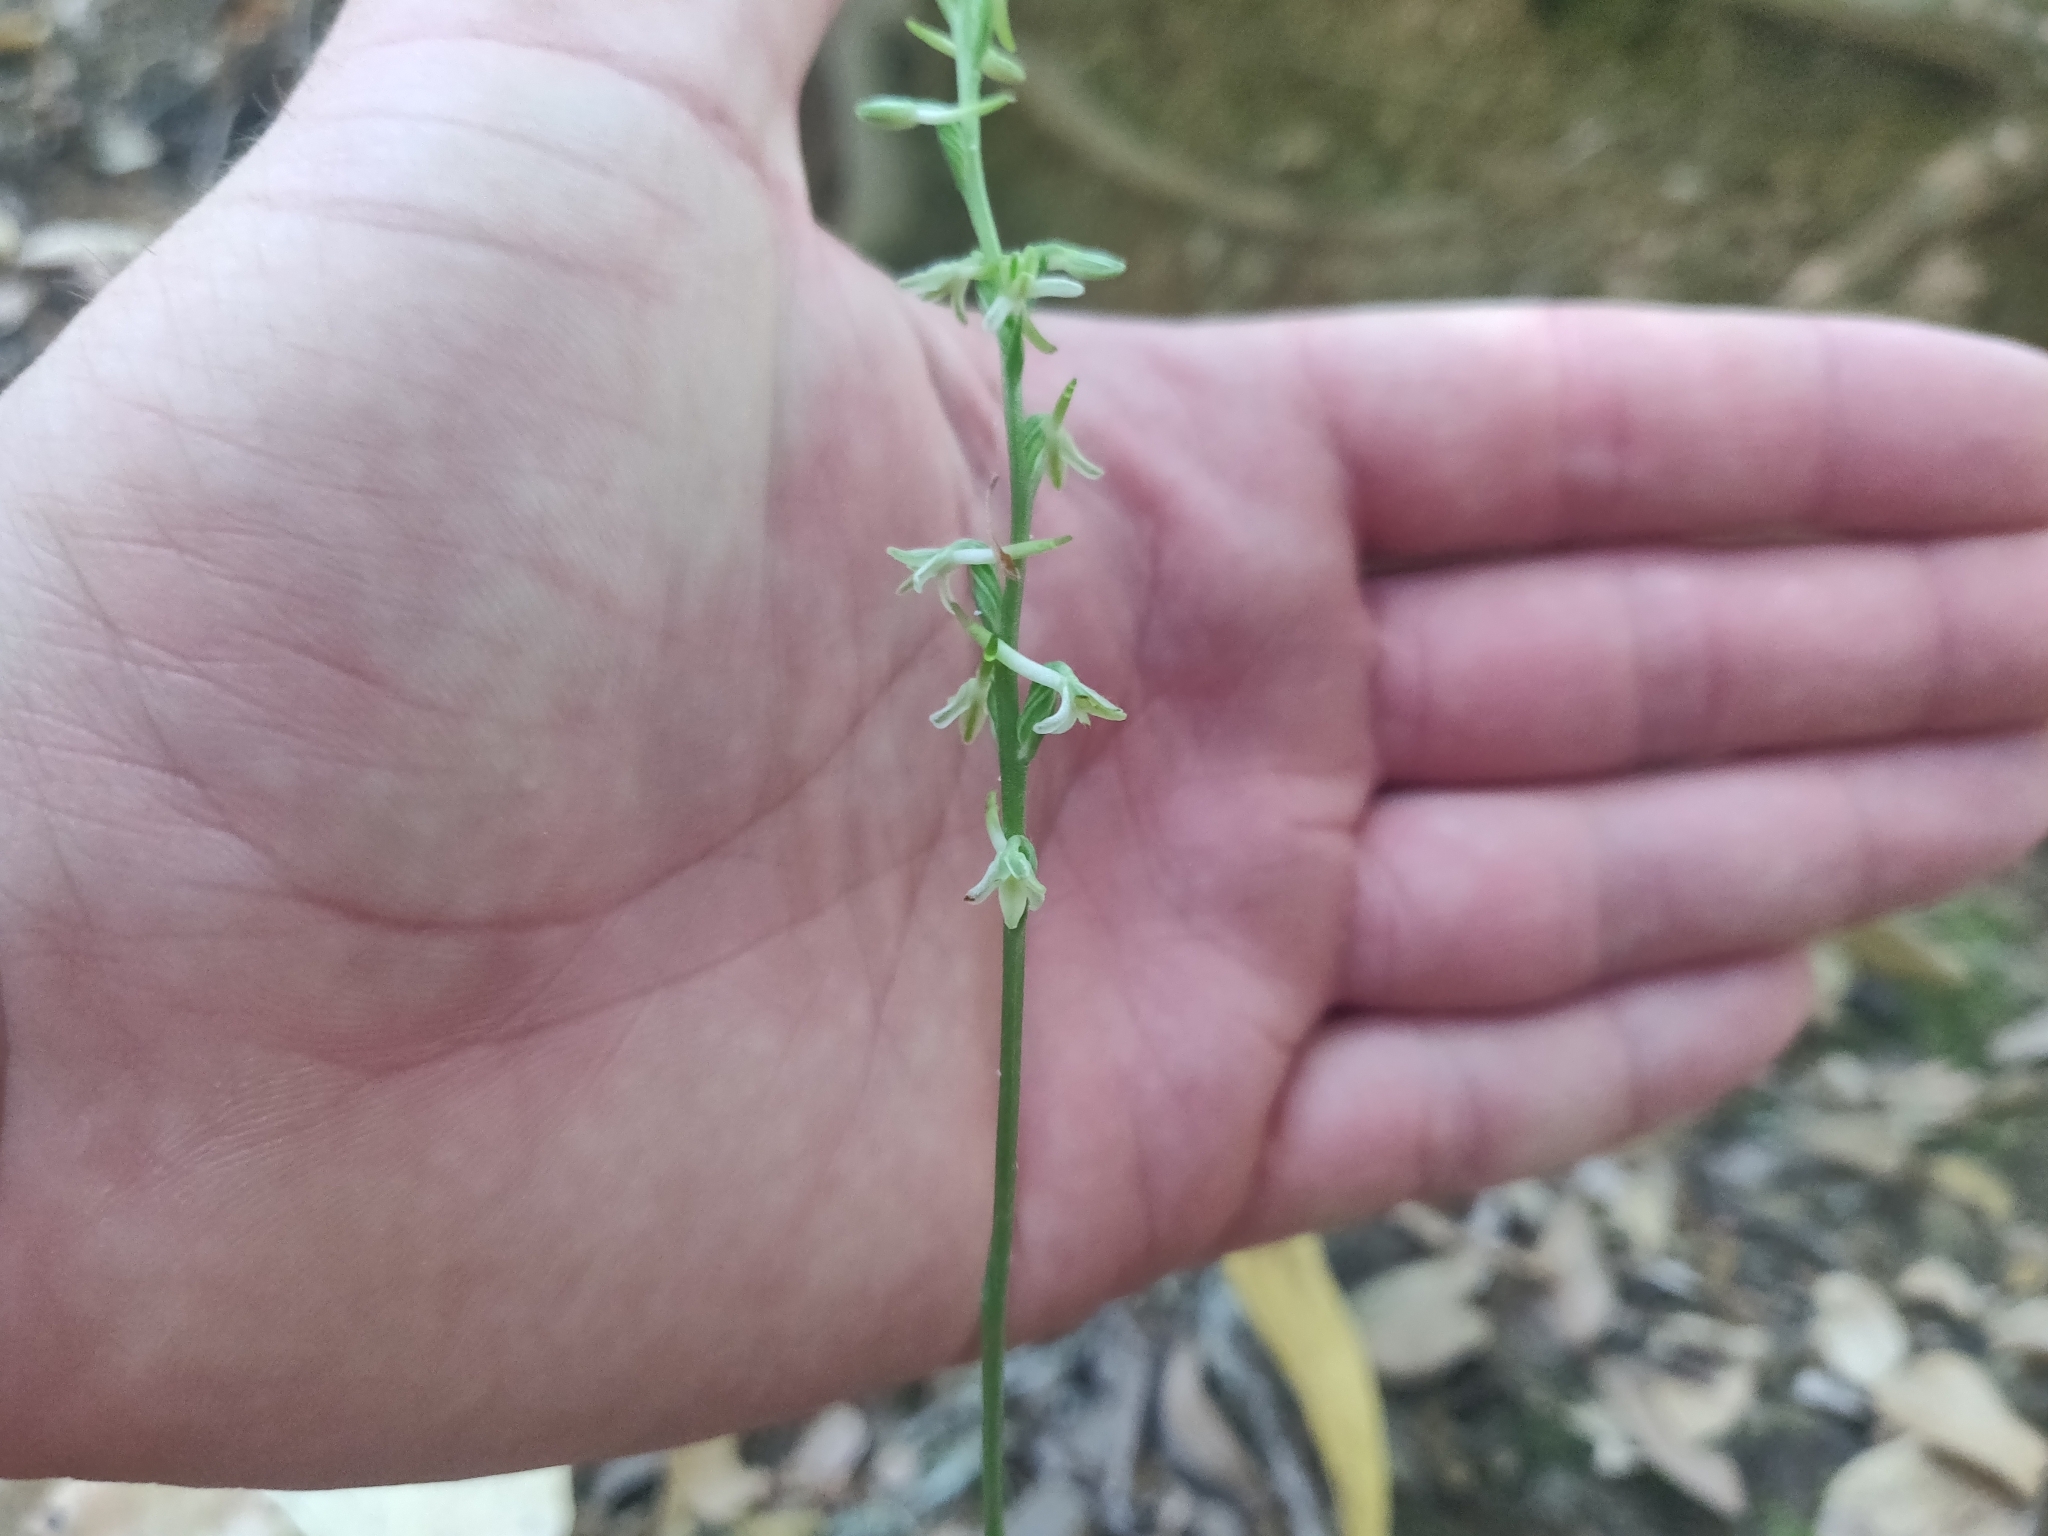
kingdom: Plantae
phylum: Tracheophyta
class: Liliopsida
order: Asparagales
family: Orchidaceae
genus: Platanthera
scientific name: Platanthera transversa
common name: Royal rein orchid
